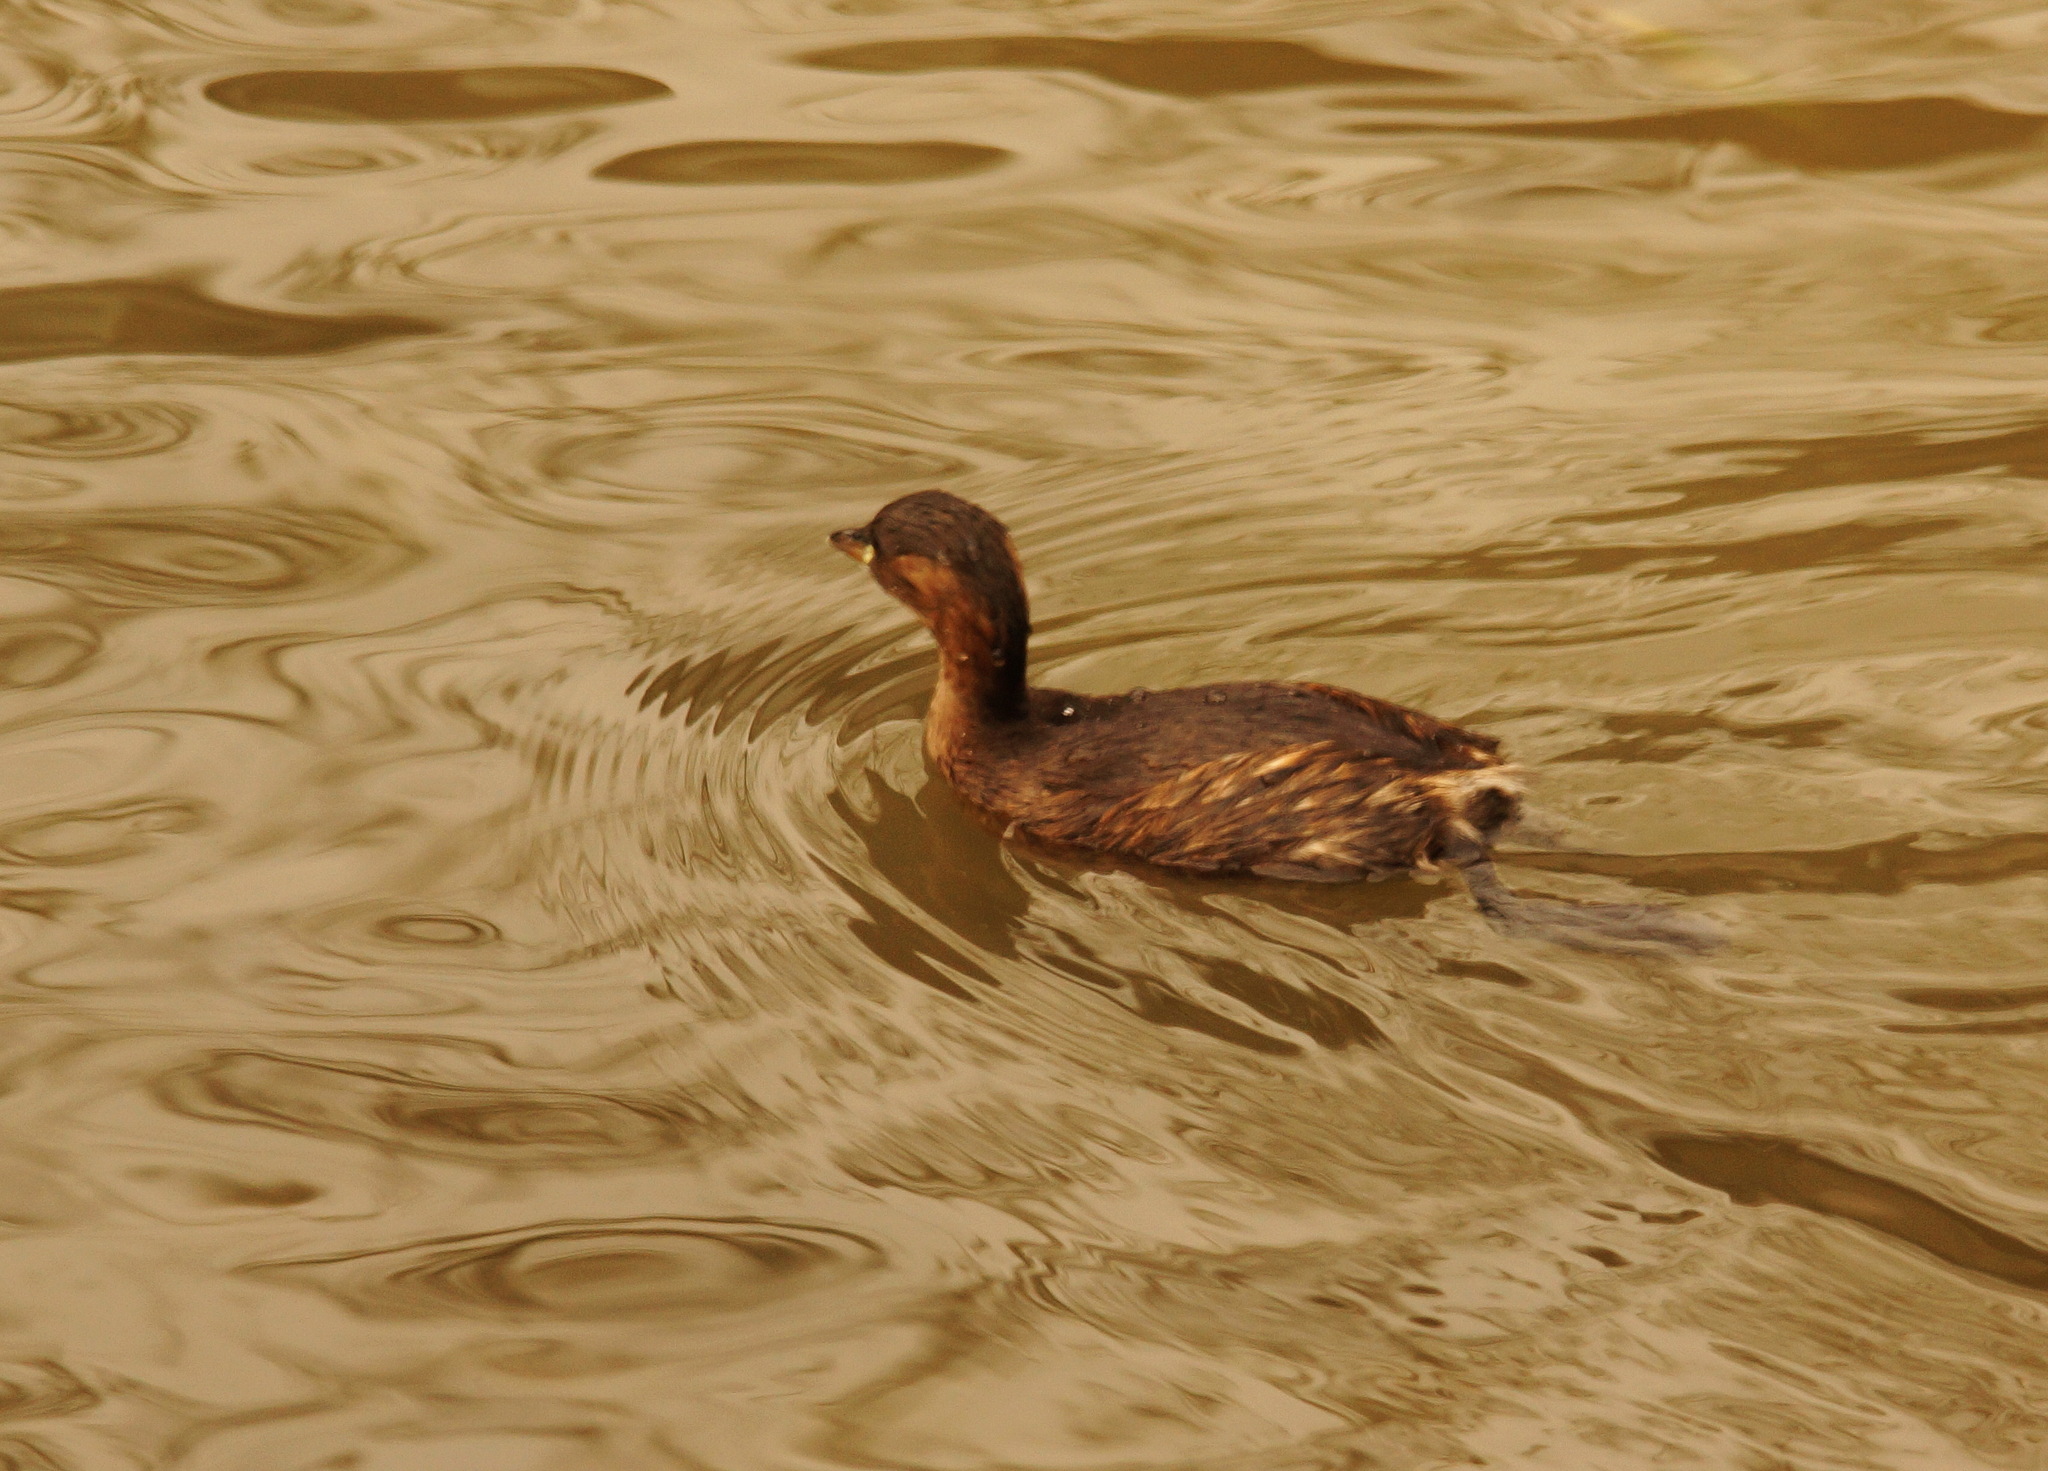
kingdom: Animalia
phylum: Chordata
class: Aves
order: Podicipediformes
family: Podicipedidae
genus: Tachybaptus
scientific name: Tachybaptus ruficollis
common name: Little grebe
